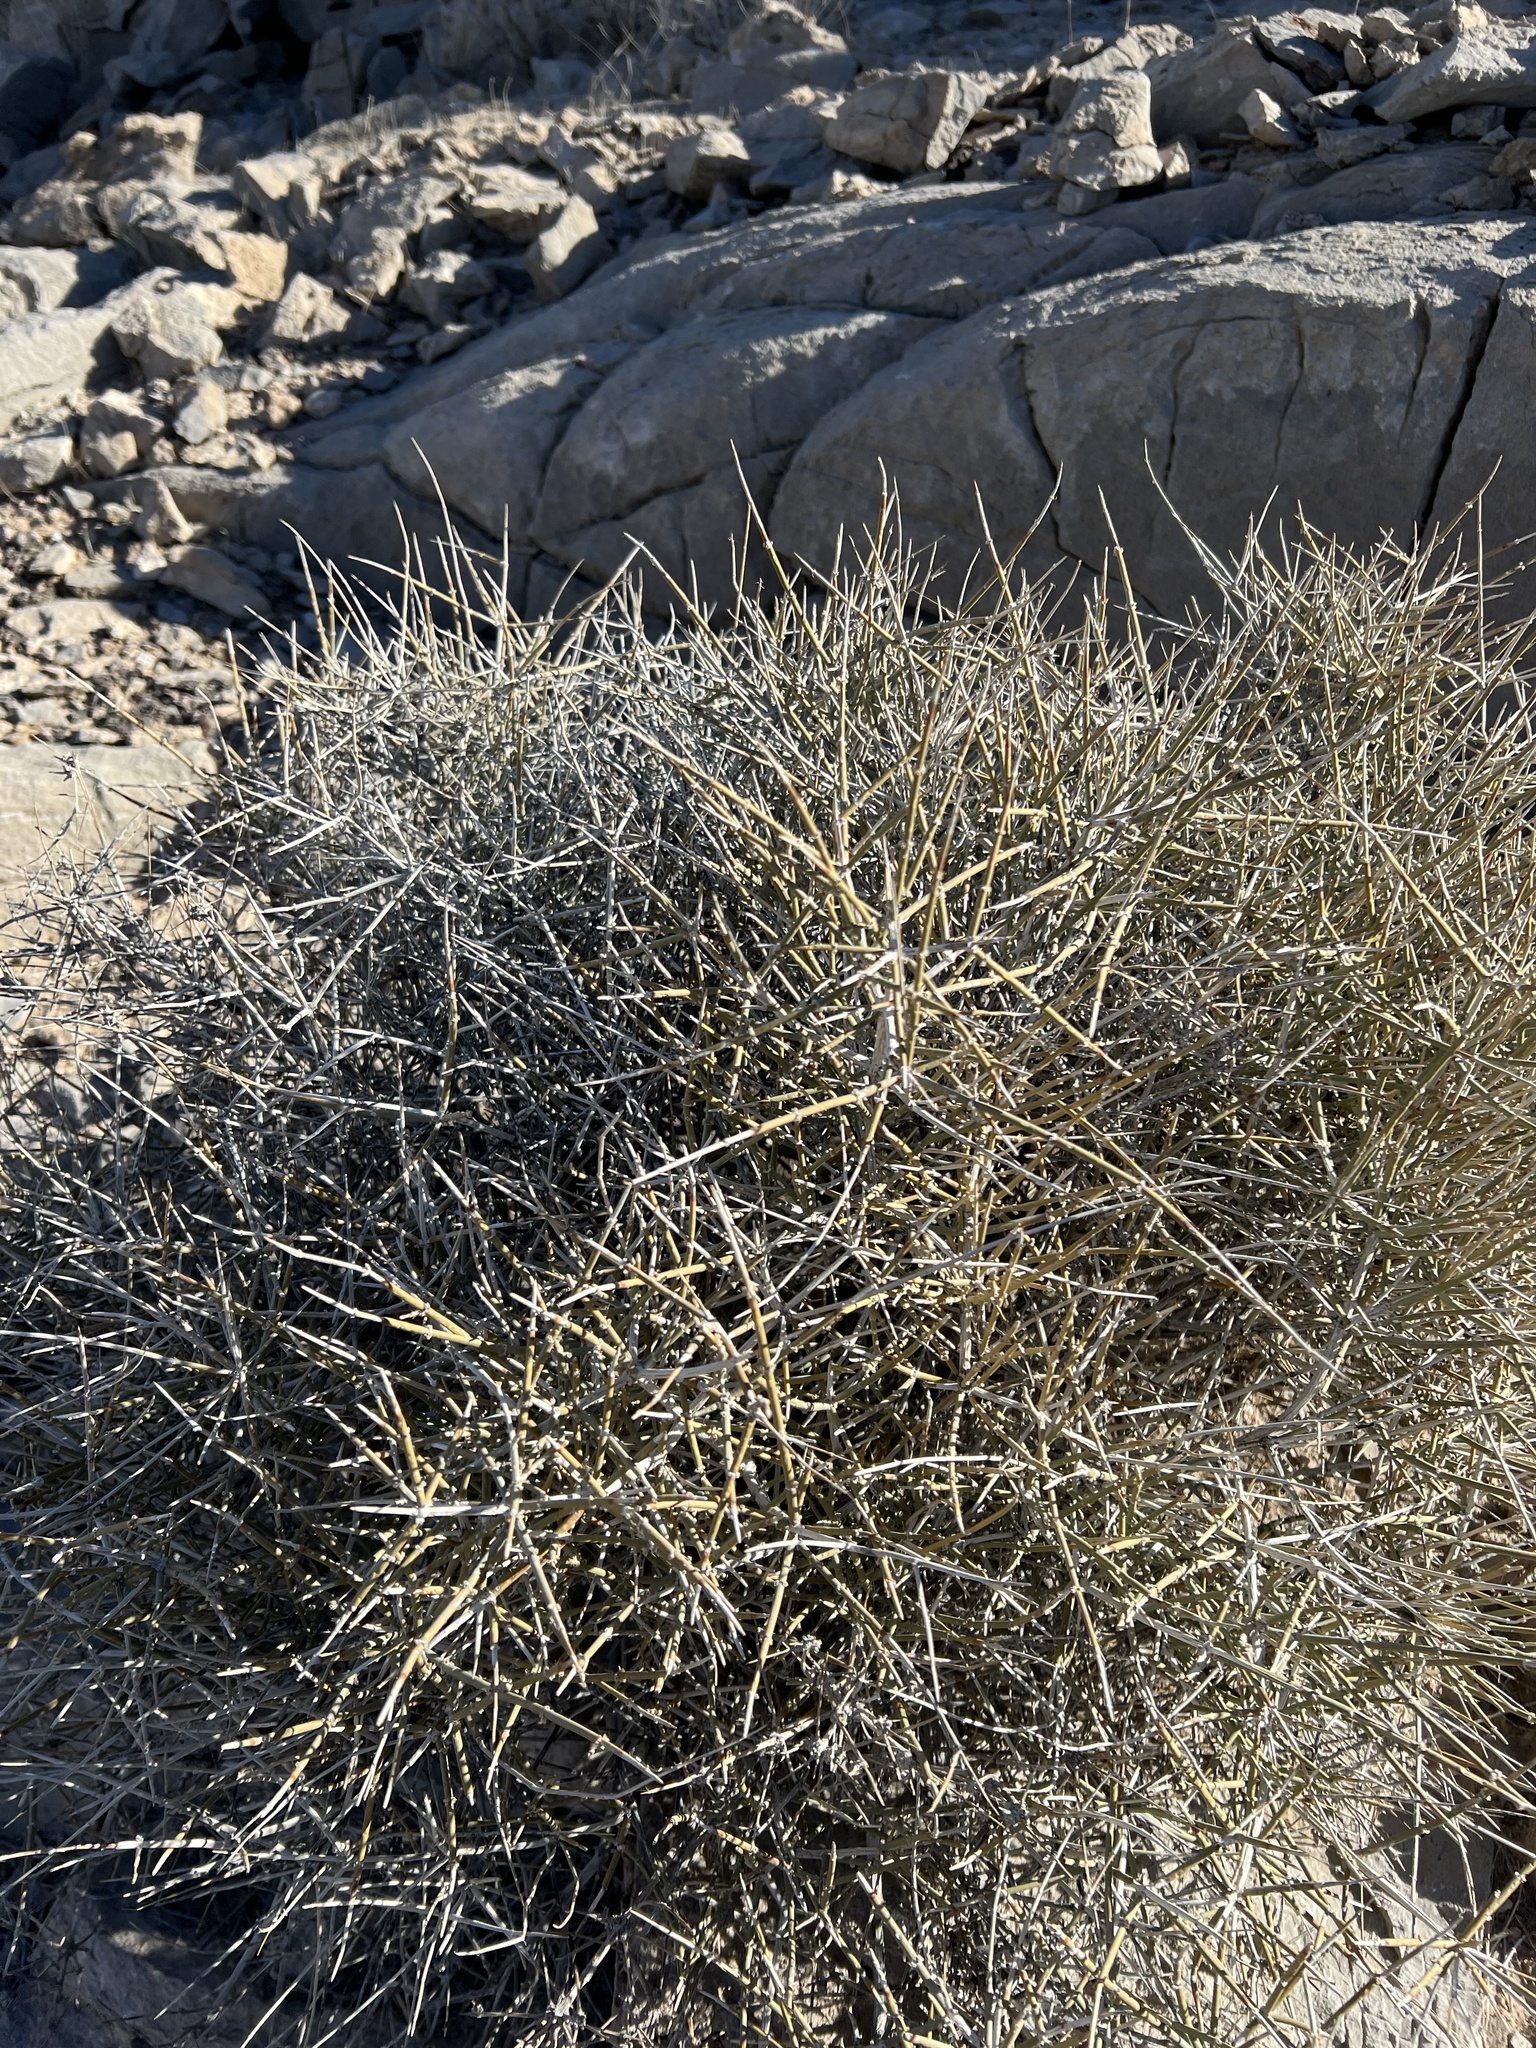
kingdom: Plantae
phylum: Tracheophyta
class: Gnetopsida
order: Ephedrales
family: Ephedraceae
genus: Ephedra
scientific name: Ephedra nevadensis
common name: Gray ephedra
